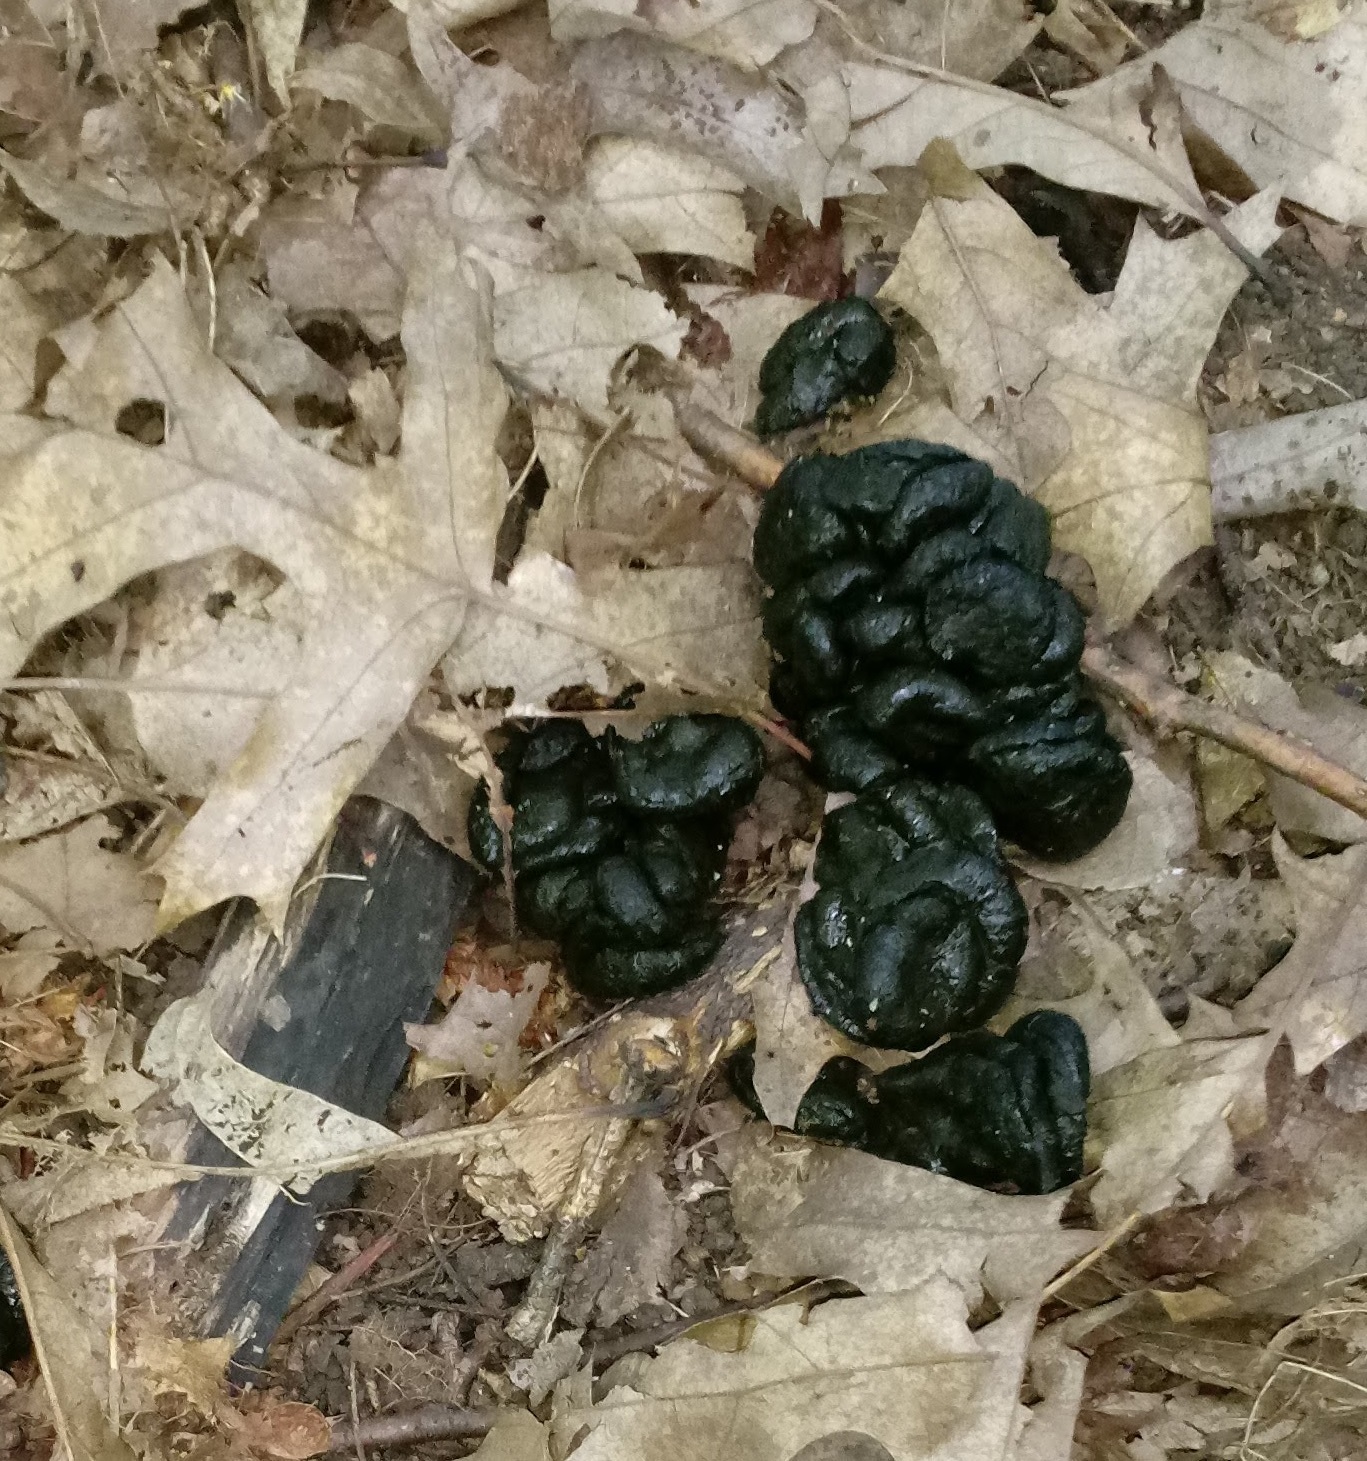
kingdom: Animalia
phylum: Chordata
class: Mammalia
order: Artiodactyla
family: Cervidae
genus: Odocoileus
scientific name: Odocoileus virginianus
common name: White-tailed deer
